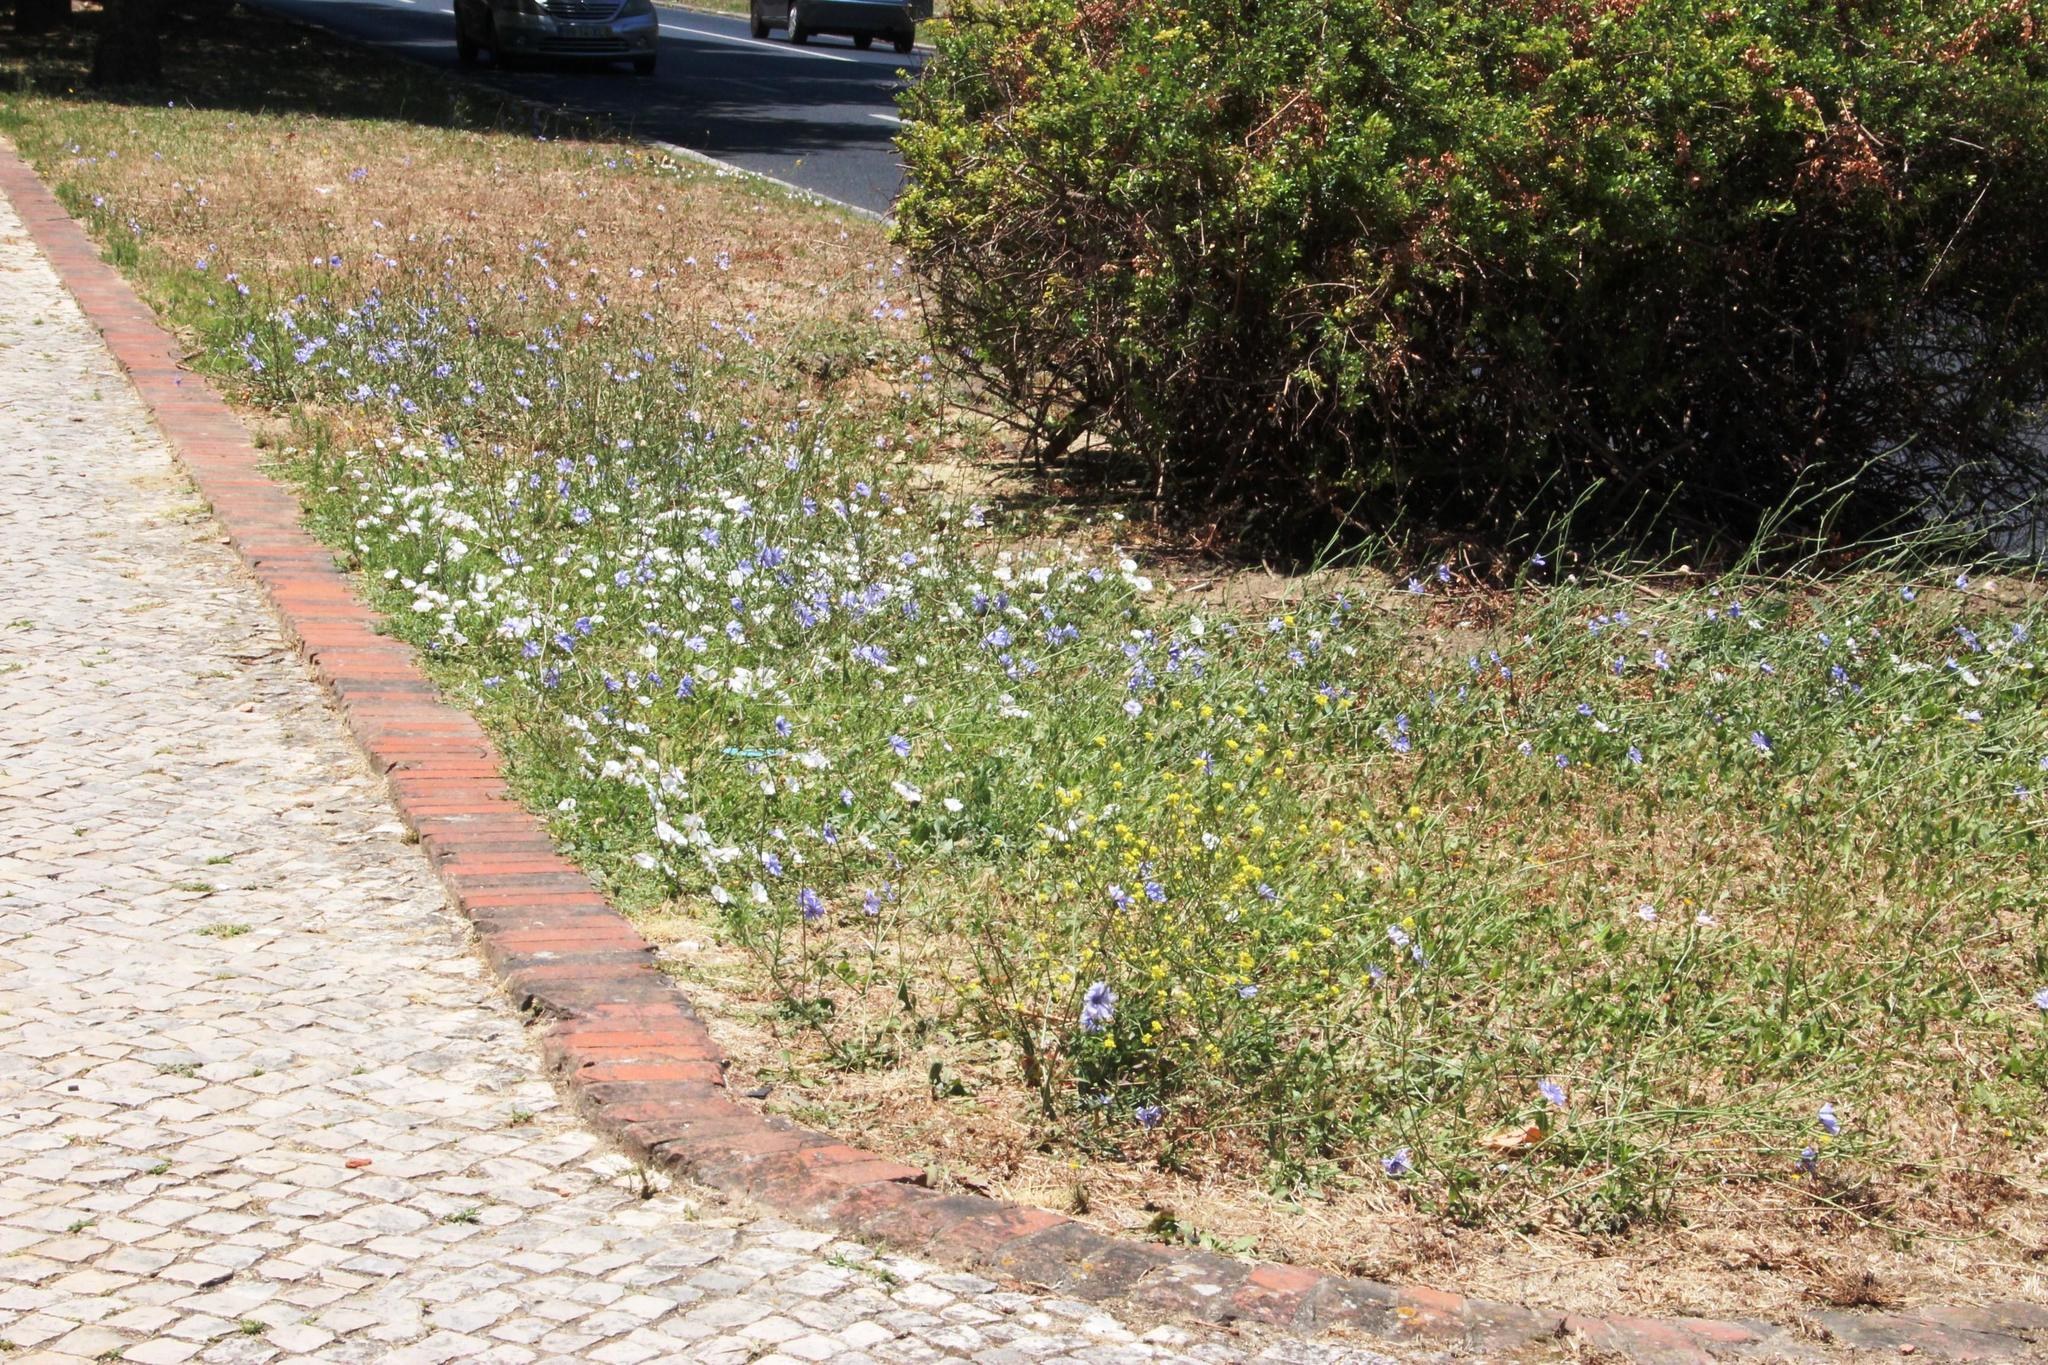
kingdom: Plantae
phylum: Tracheophyta
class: Magnoliopsida
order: Asterales
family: Asteraceae
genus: Cichorium
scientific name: Cichorium intybus
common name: Chicory
